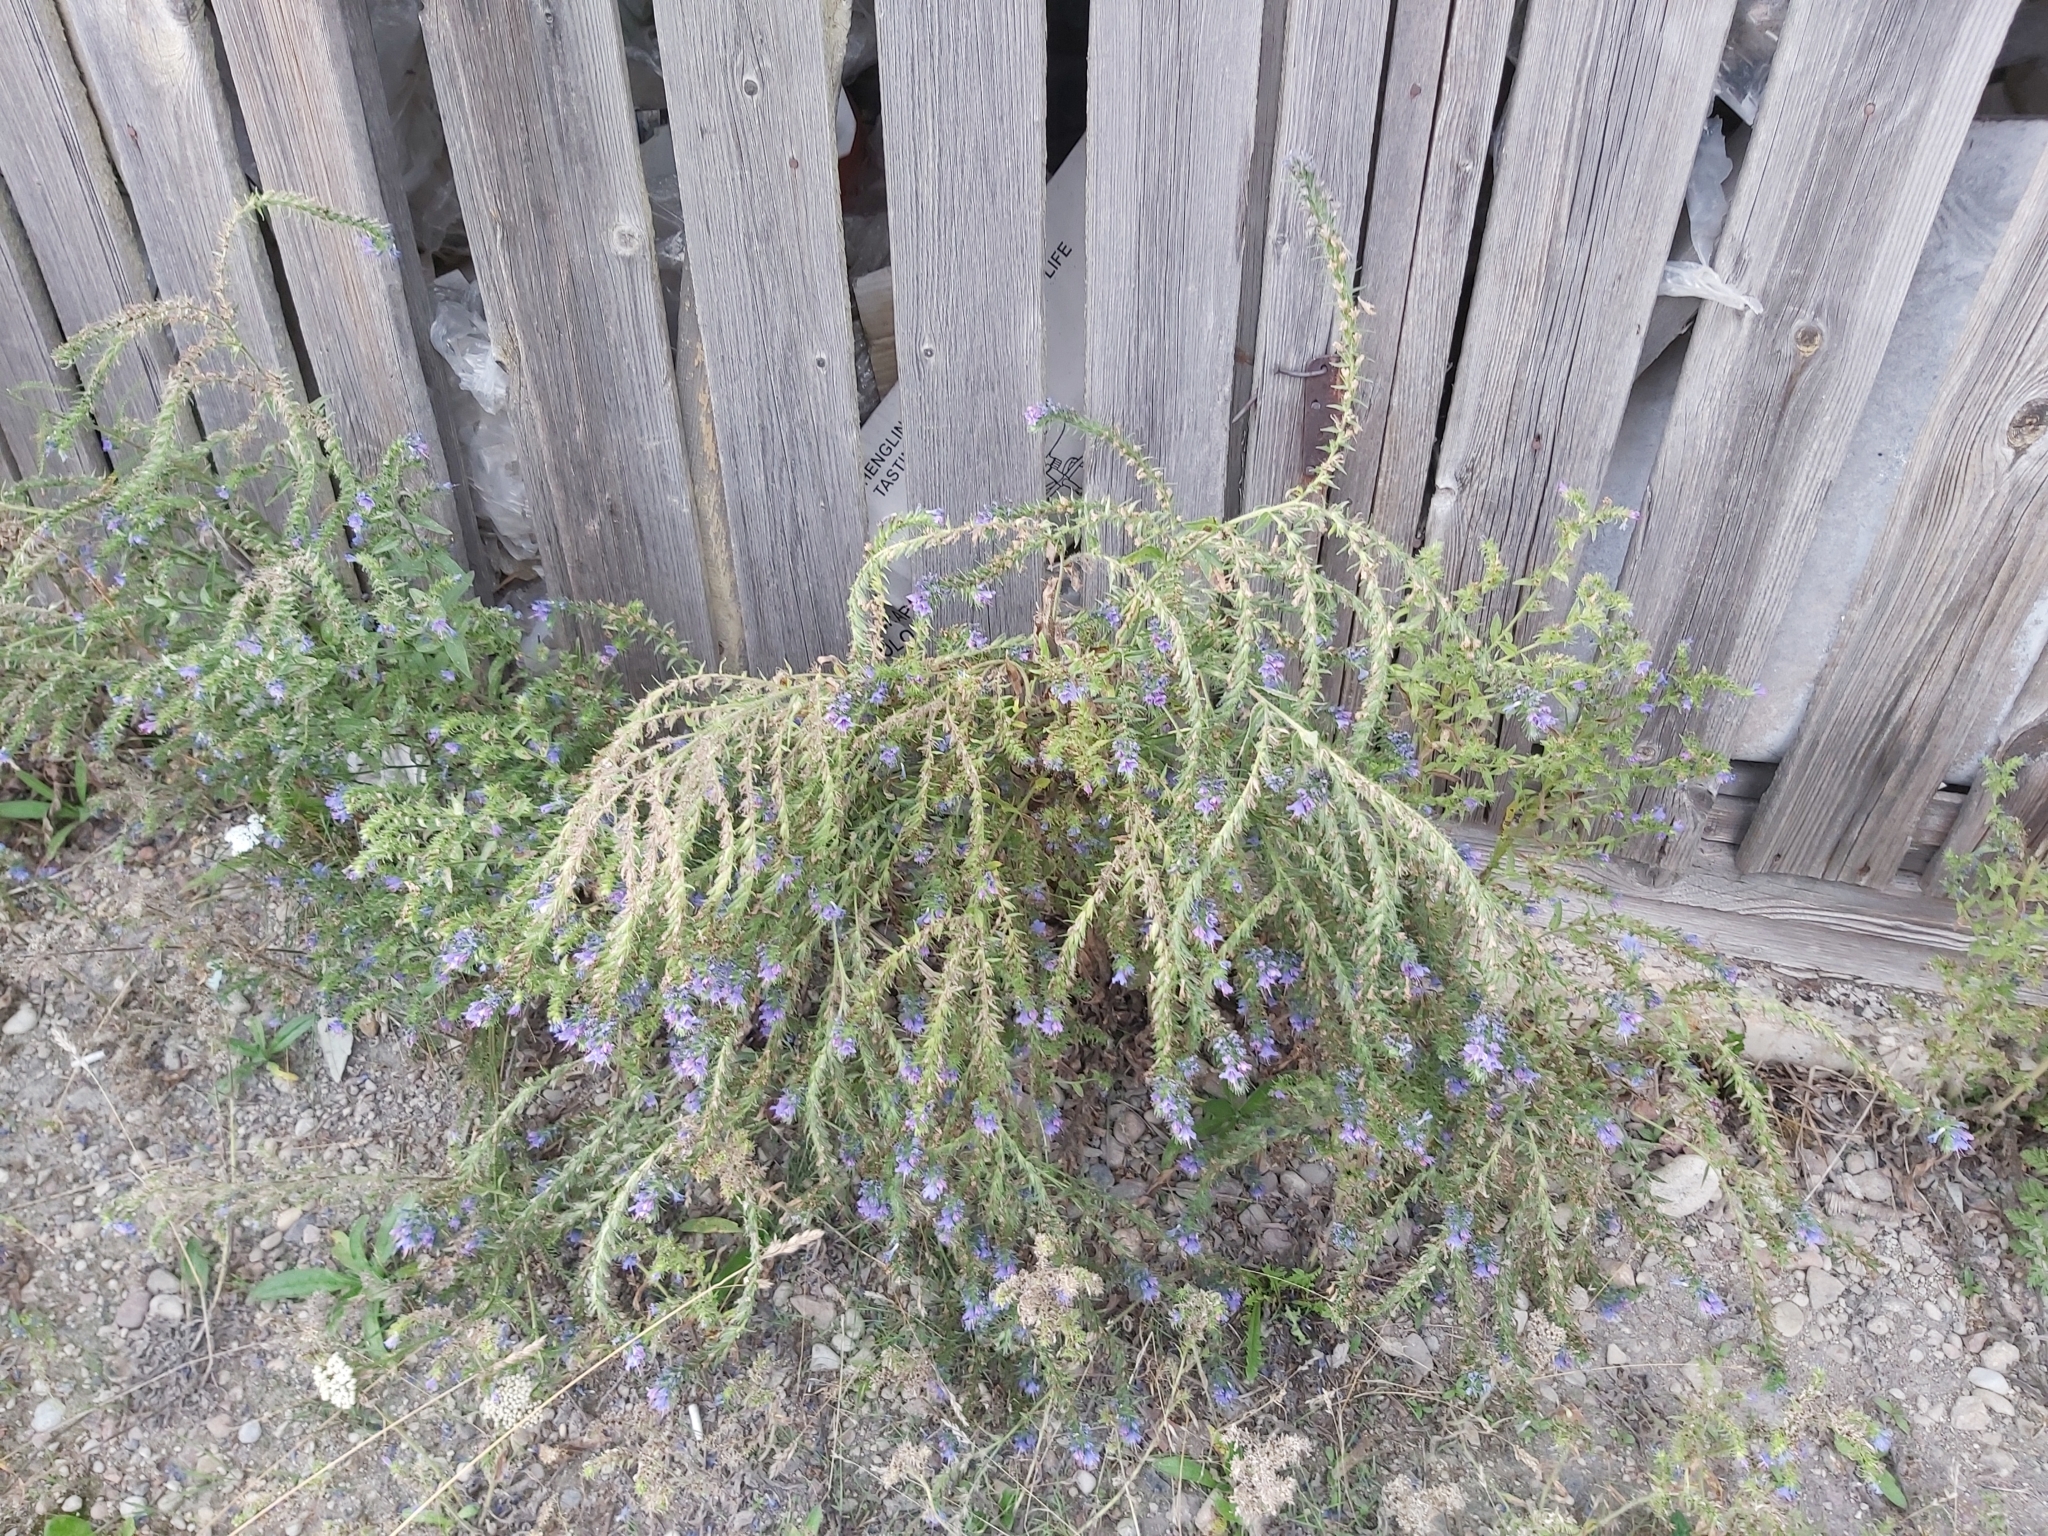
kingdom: Plantae
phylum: Tracheophyta
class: Magnoliopsida
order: Boraginales
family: Boraginaceae
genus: Echium
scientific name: Echium vulgare
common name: Common viper's bugloss
